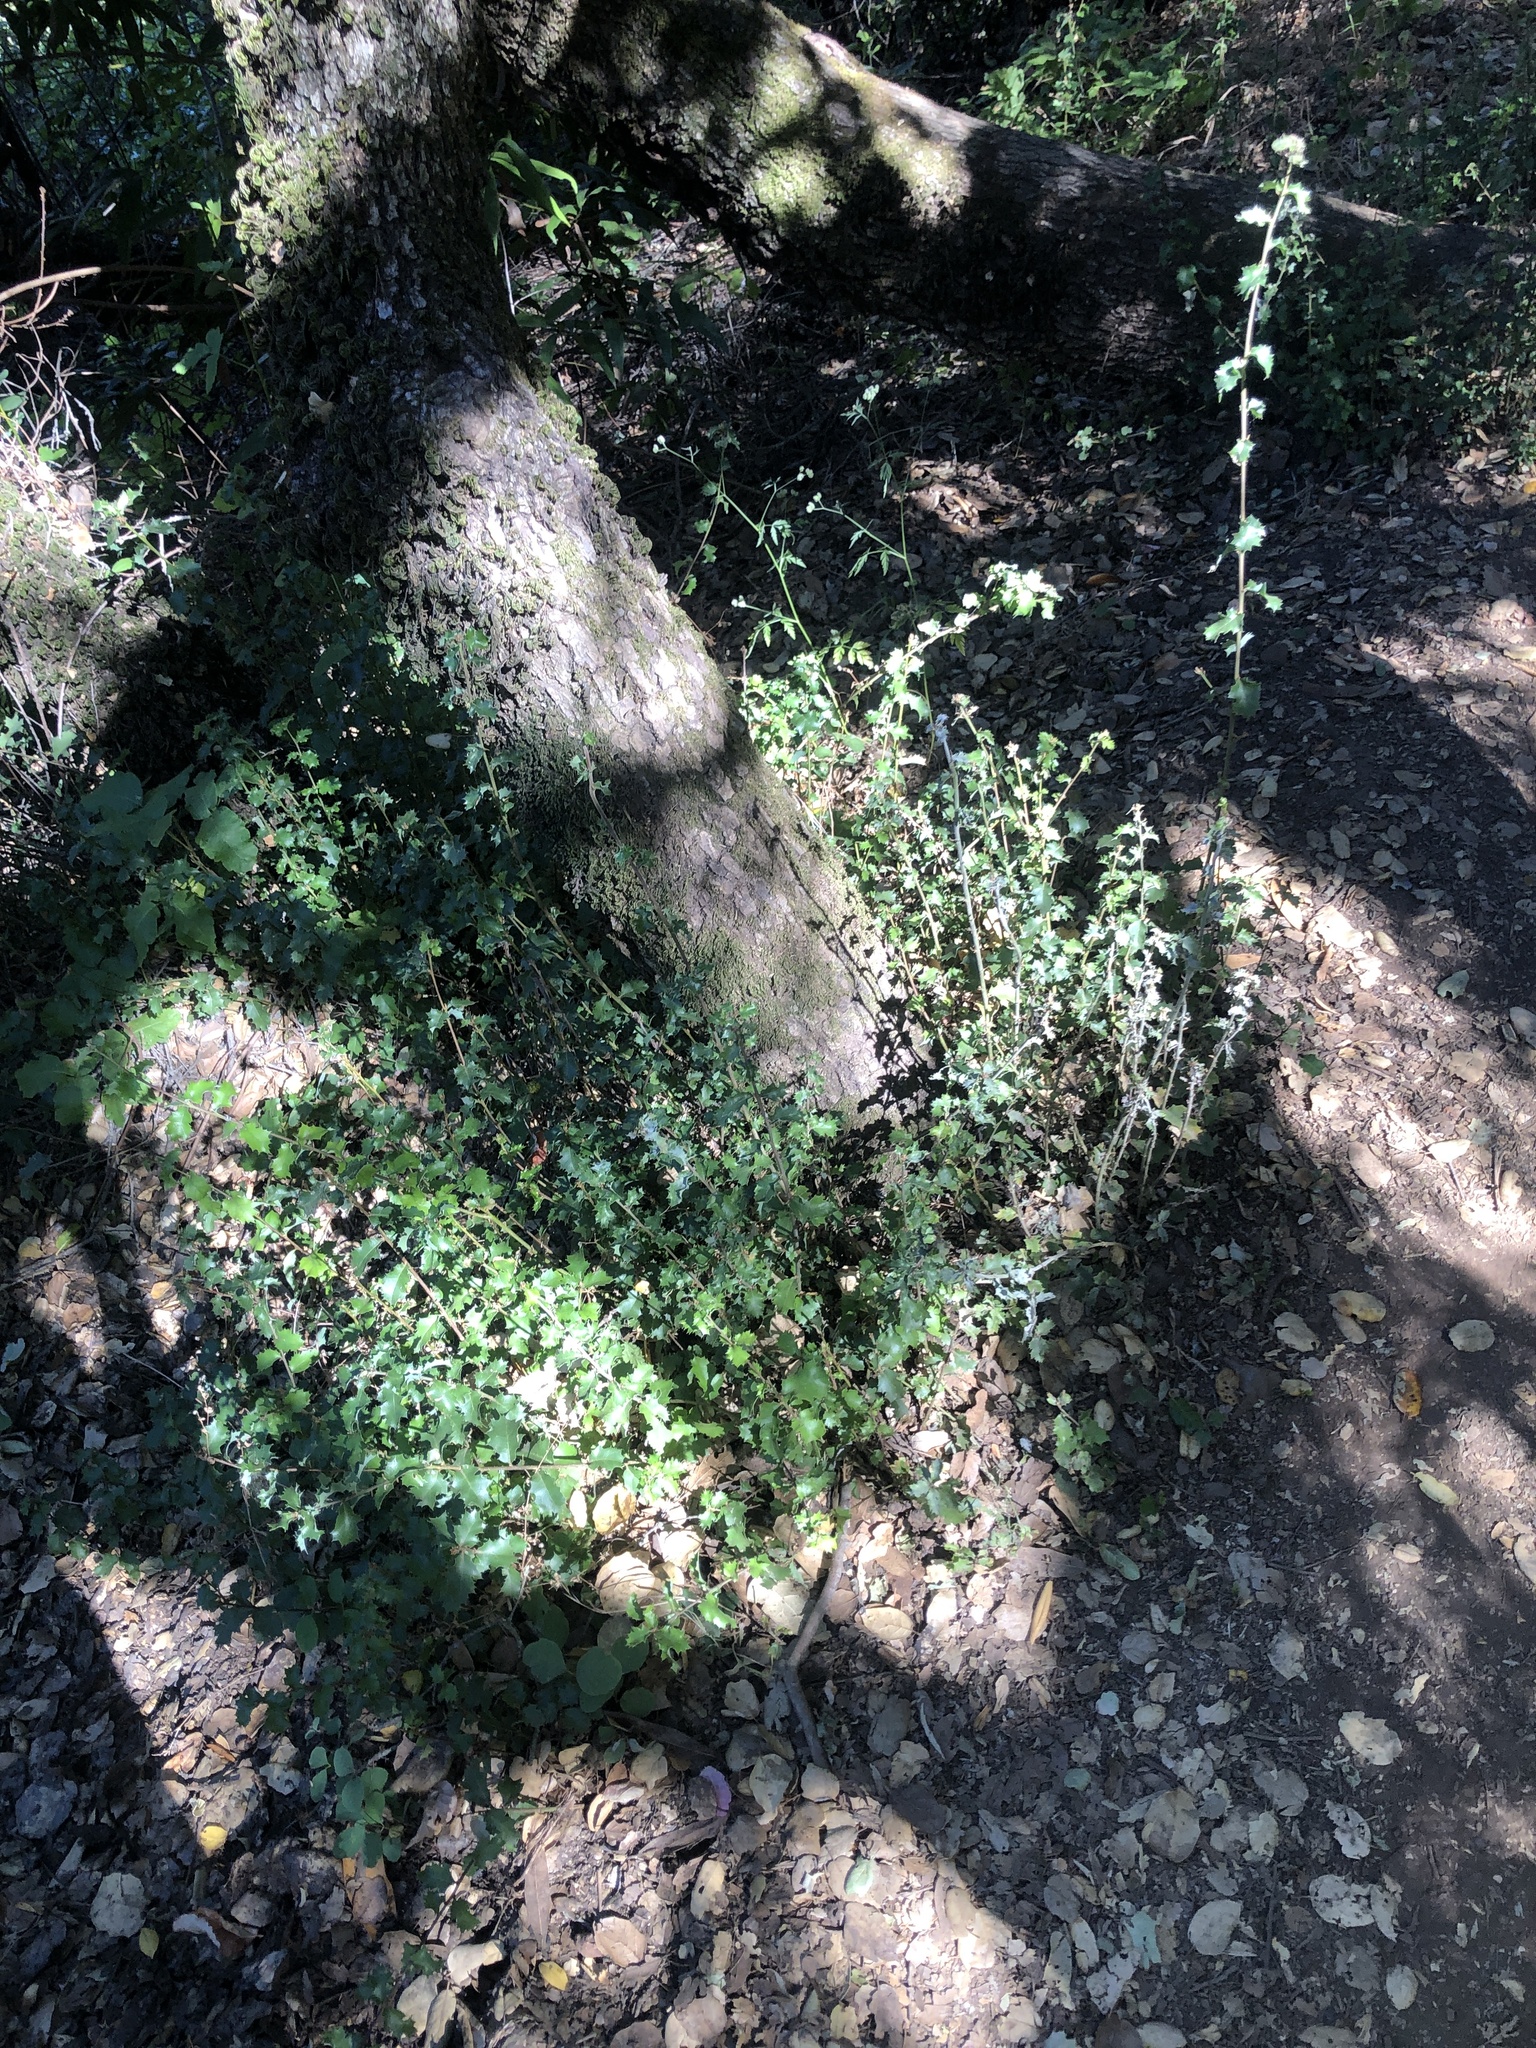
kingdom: Fungi
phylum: Ascomycota
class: Leotiomycetes
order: Helotiales
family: Erysiphaceae
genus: Cystotheca
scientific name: Cystotheca lanestris
